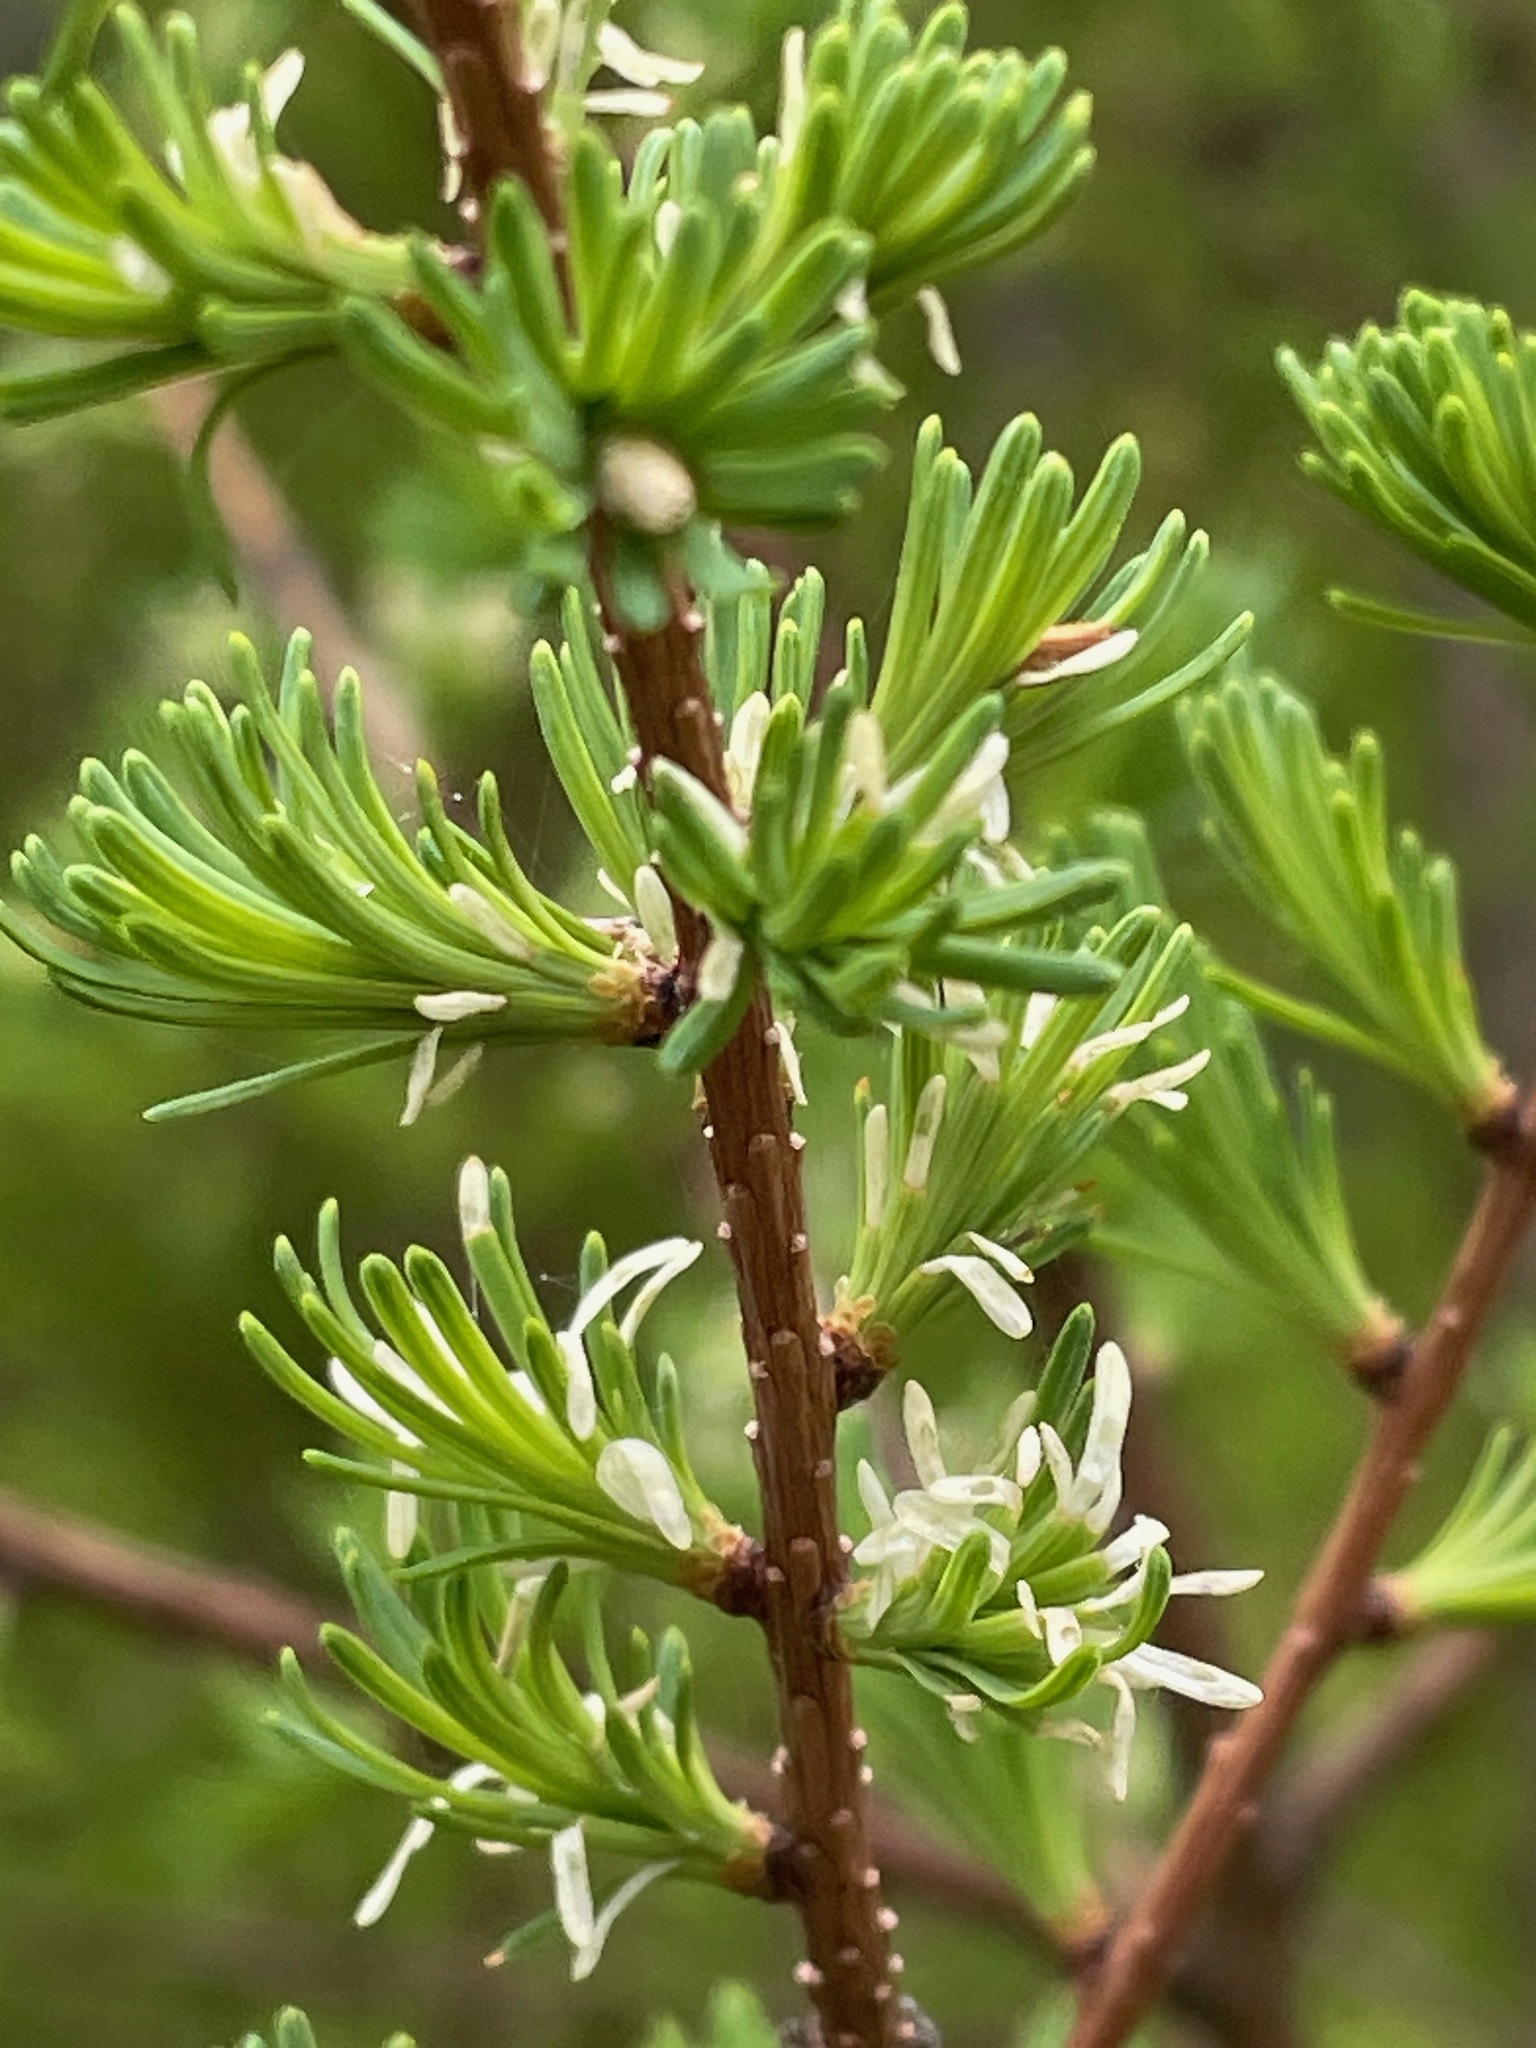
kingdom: Plantae
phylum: Tracheophyta
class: Pinopsida
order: Pinales
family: Pinaceae
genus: Larix
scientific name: Larix laricina
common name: American larch
